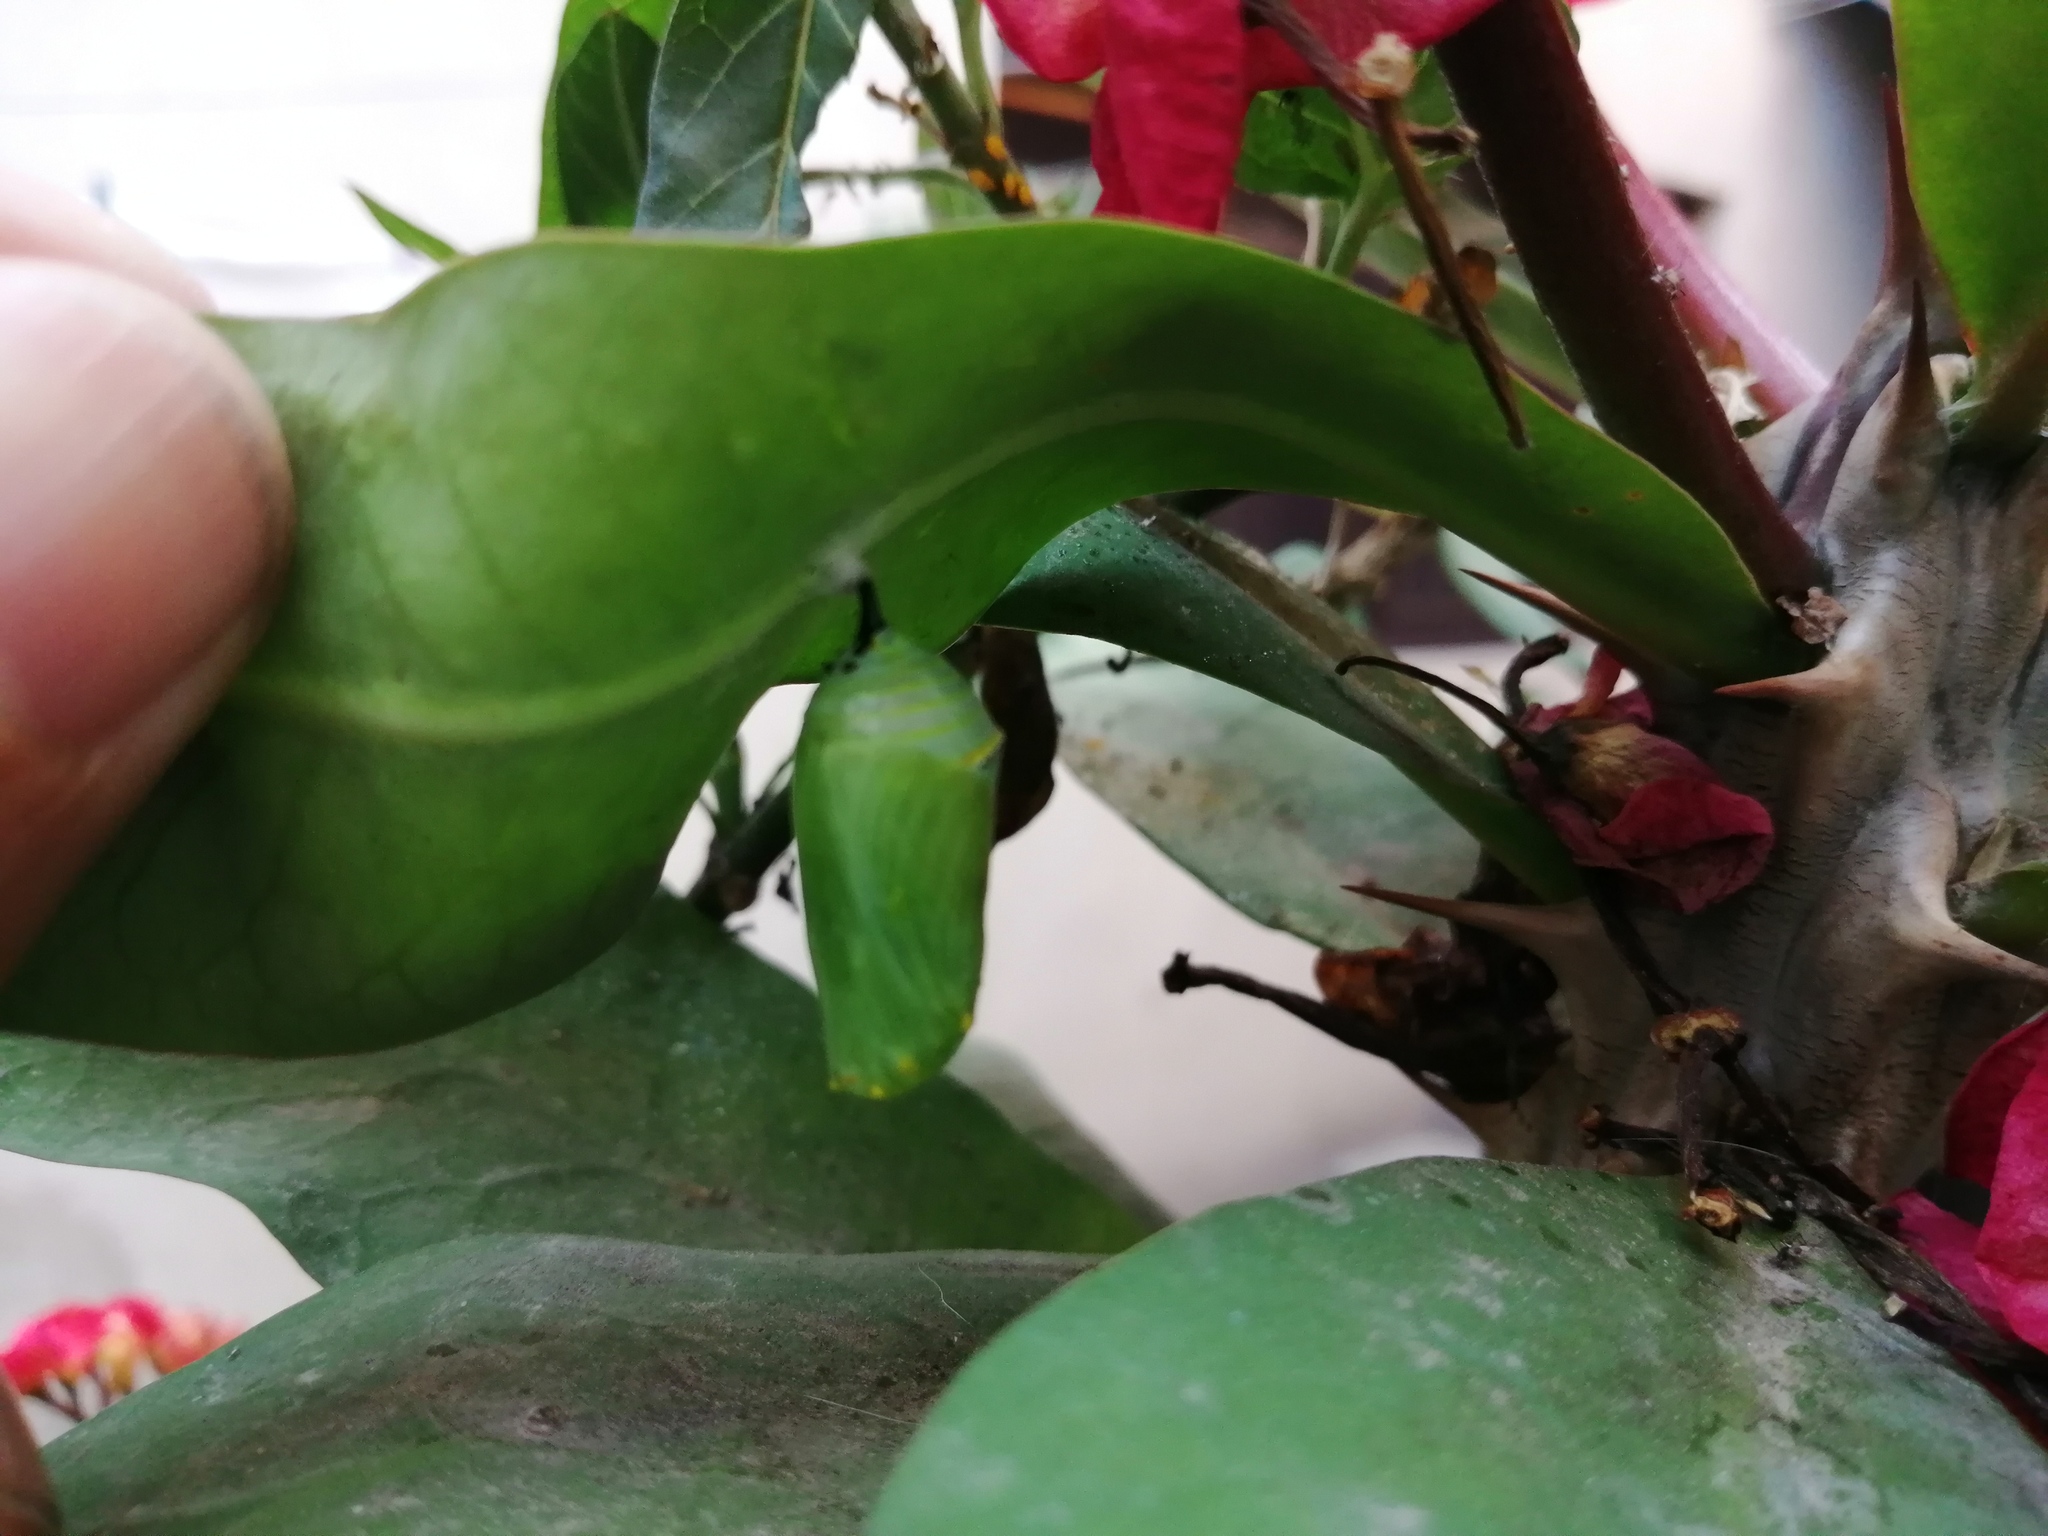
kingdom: Animalia
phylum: Arthropoda
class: Insecta
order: Lepidoptera
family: Nymphalidae
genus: Danaus
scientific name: Danaus plexippus
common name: Monarch
